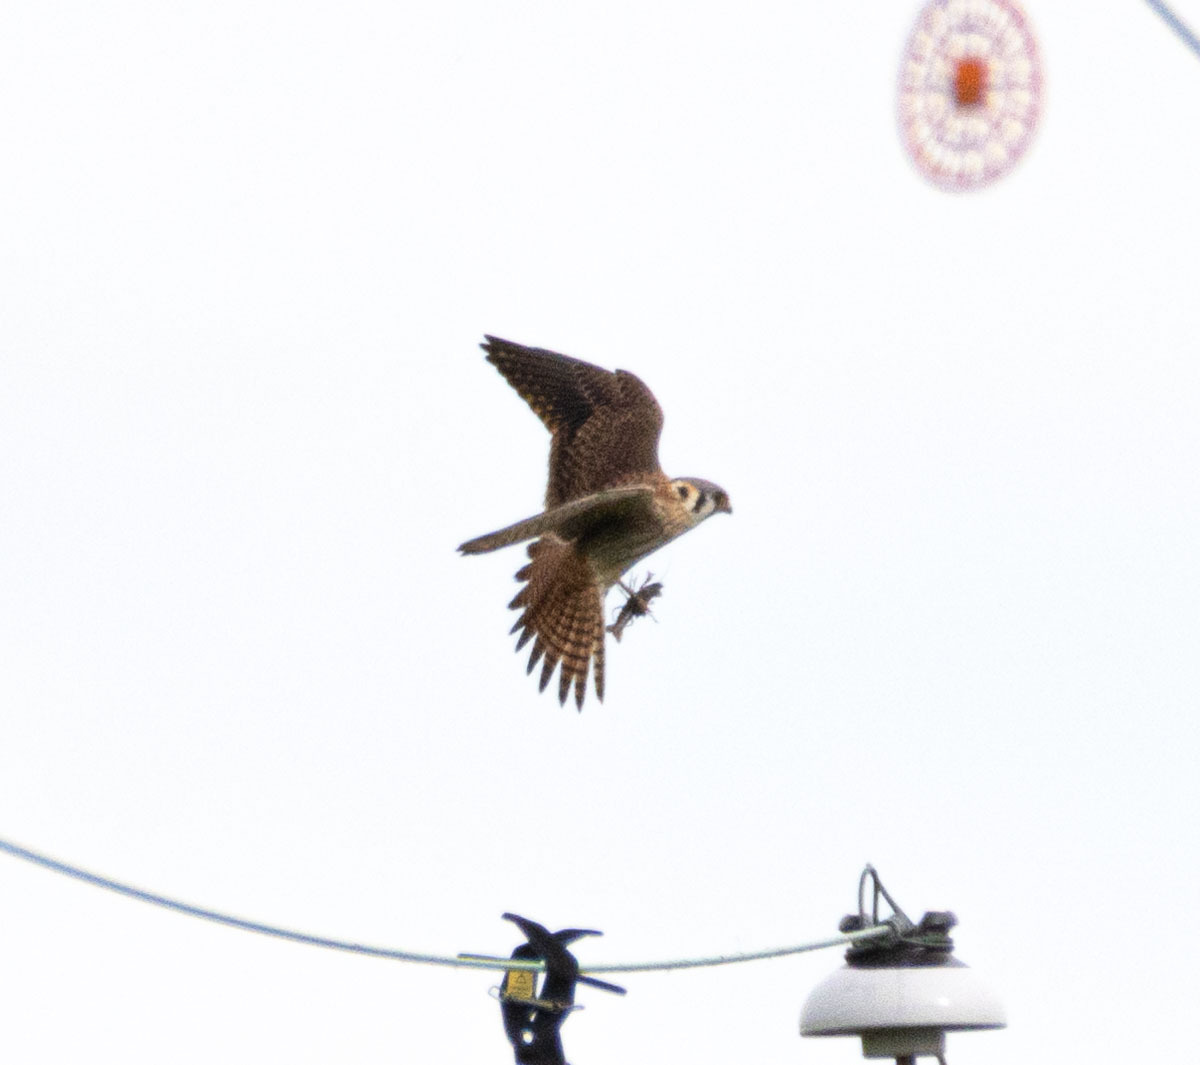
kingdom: Animalia
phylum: Chordata
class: Aves
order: Falconiformes
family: Falconidae
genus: Falco
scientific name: Falco sparverius
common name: American kestrel
